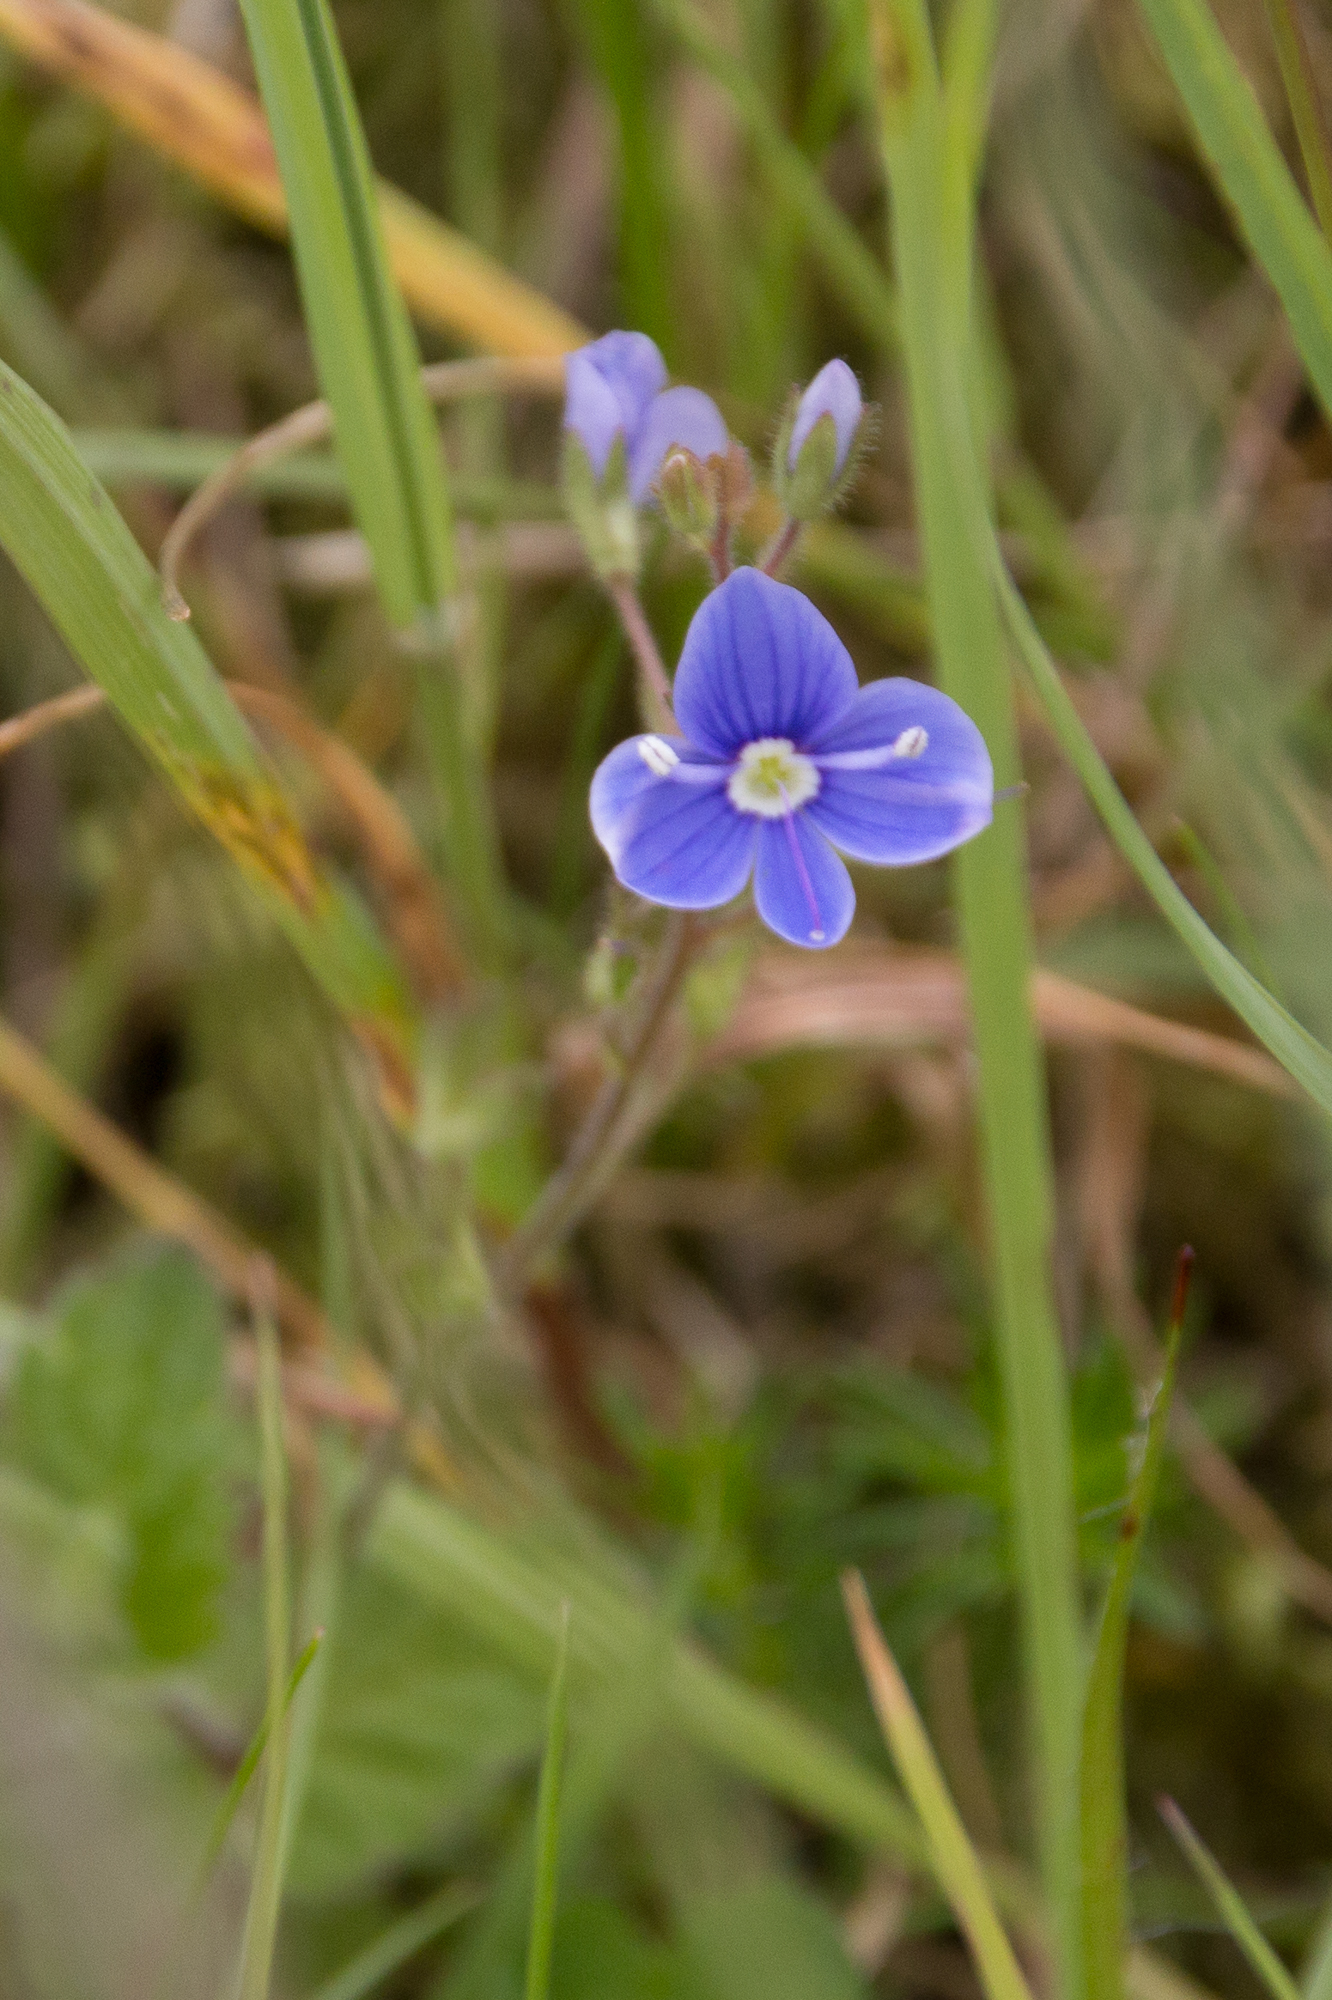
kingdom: Plantae
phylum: Tracheophyta
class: Magnoliopsida
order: Lamiales
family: Plantaginaceae
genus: Veronica
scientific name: Veronica chamaedrys
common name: Germander speedwell
